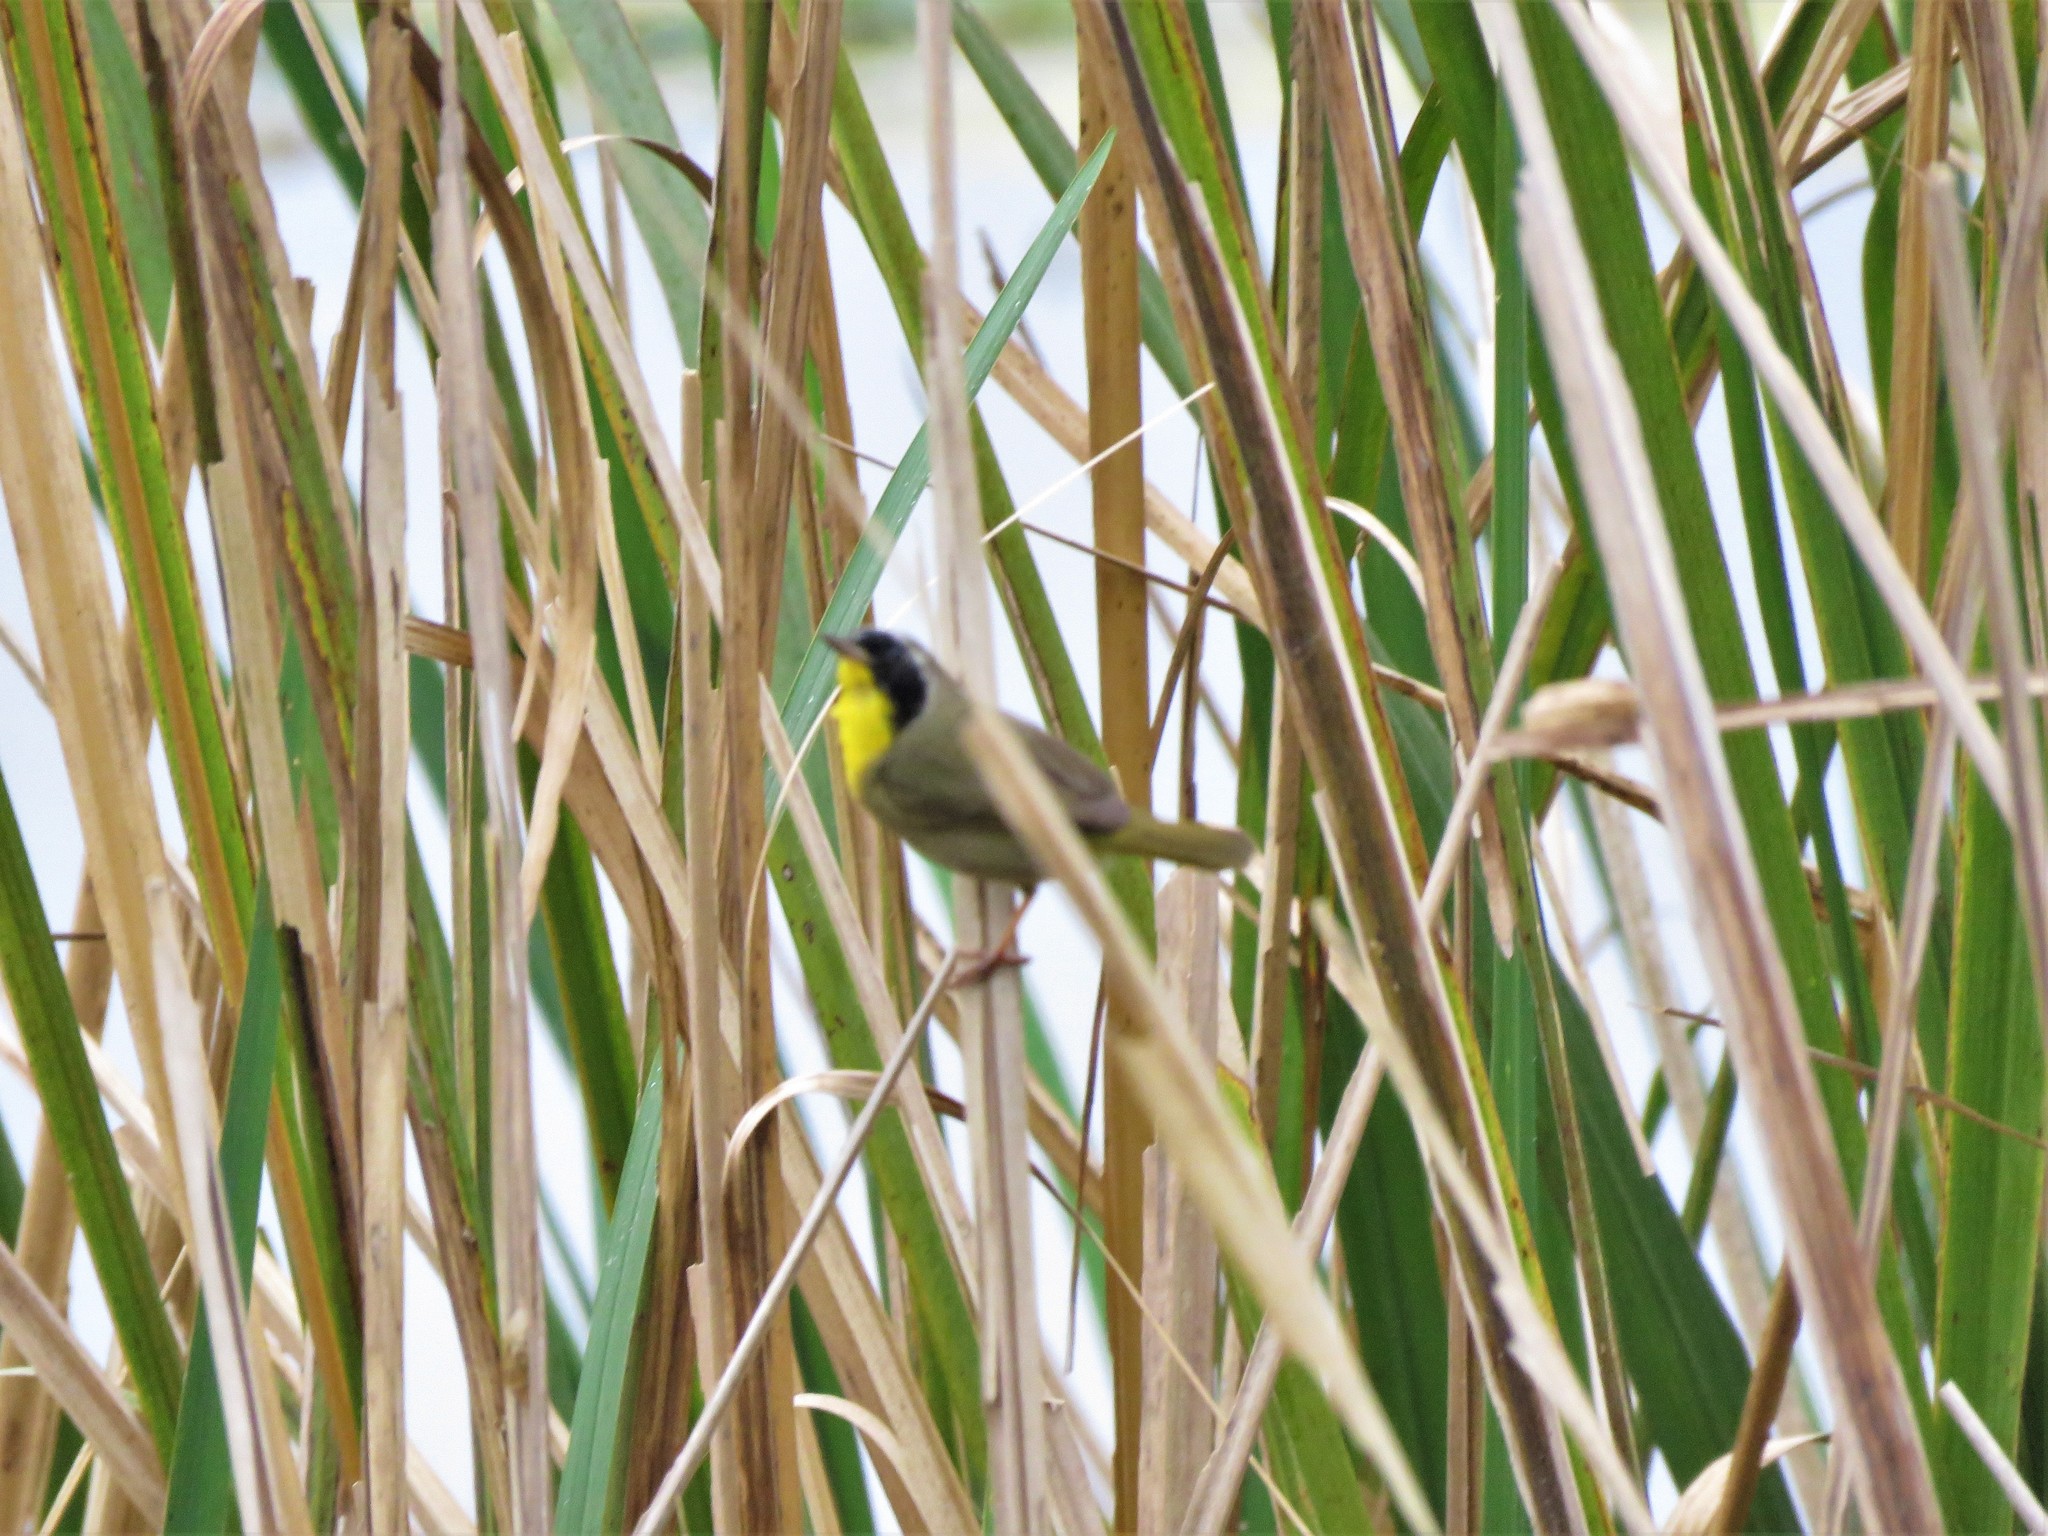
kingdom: Animalia
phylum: Chordata
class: Aves
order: Passeriformes
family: Parulidae
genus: Geothlypis
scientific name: Geothlypis trichas
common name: Common yellowthroat
